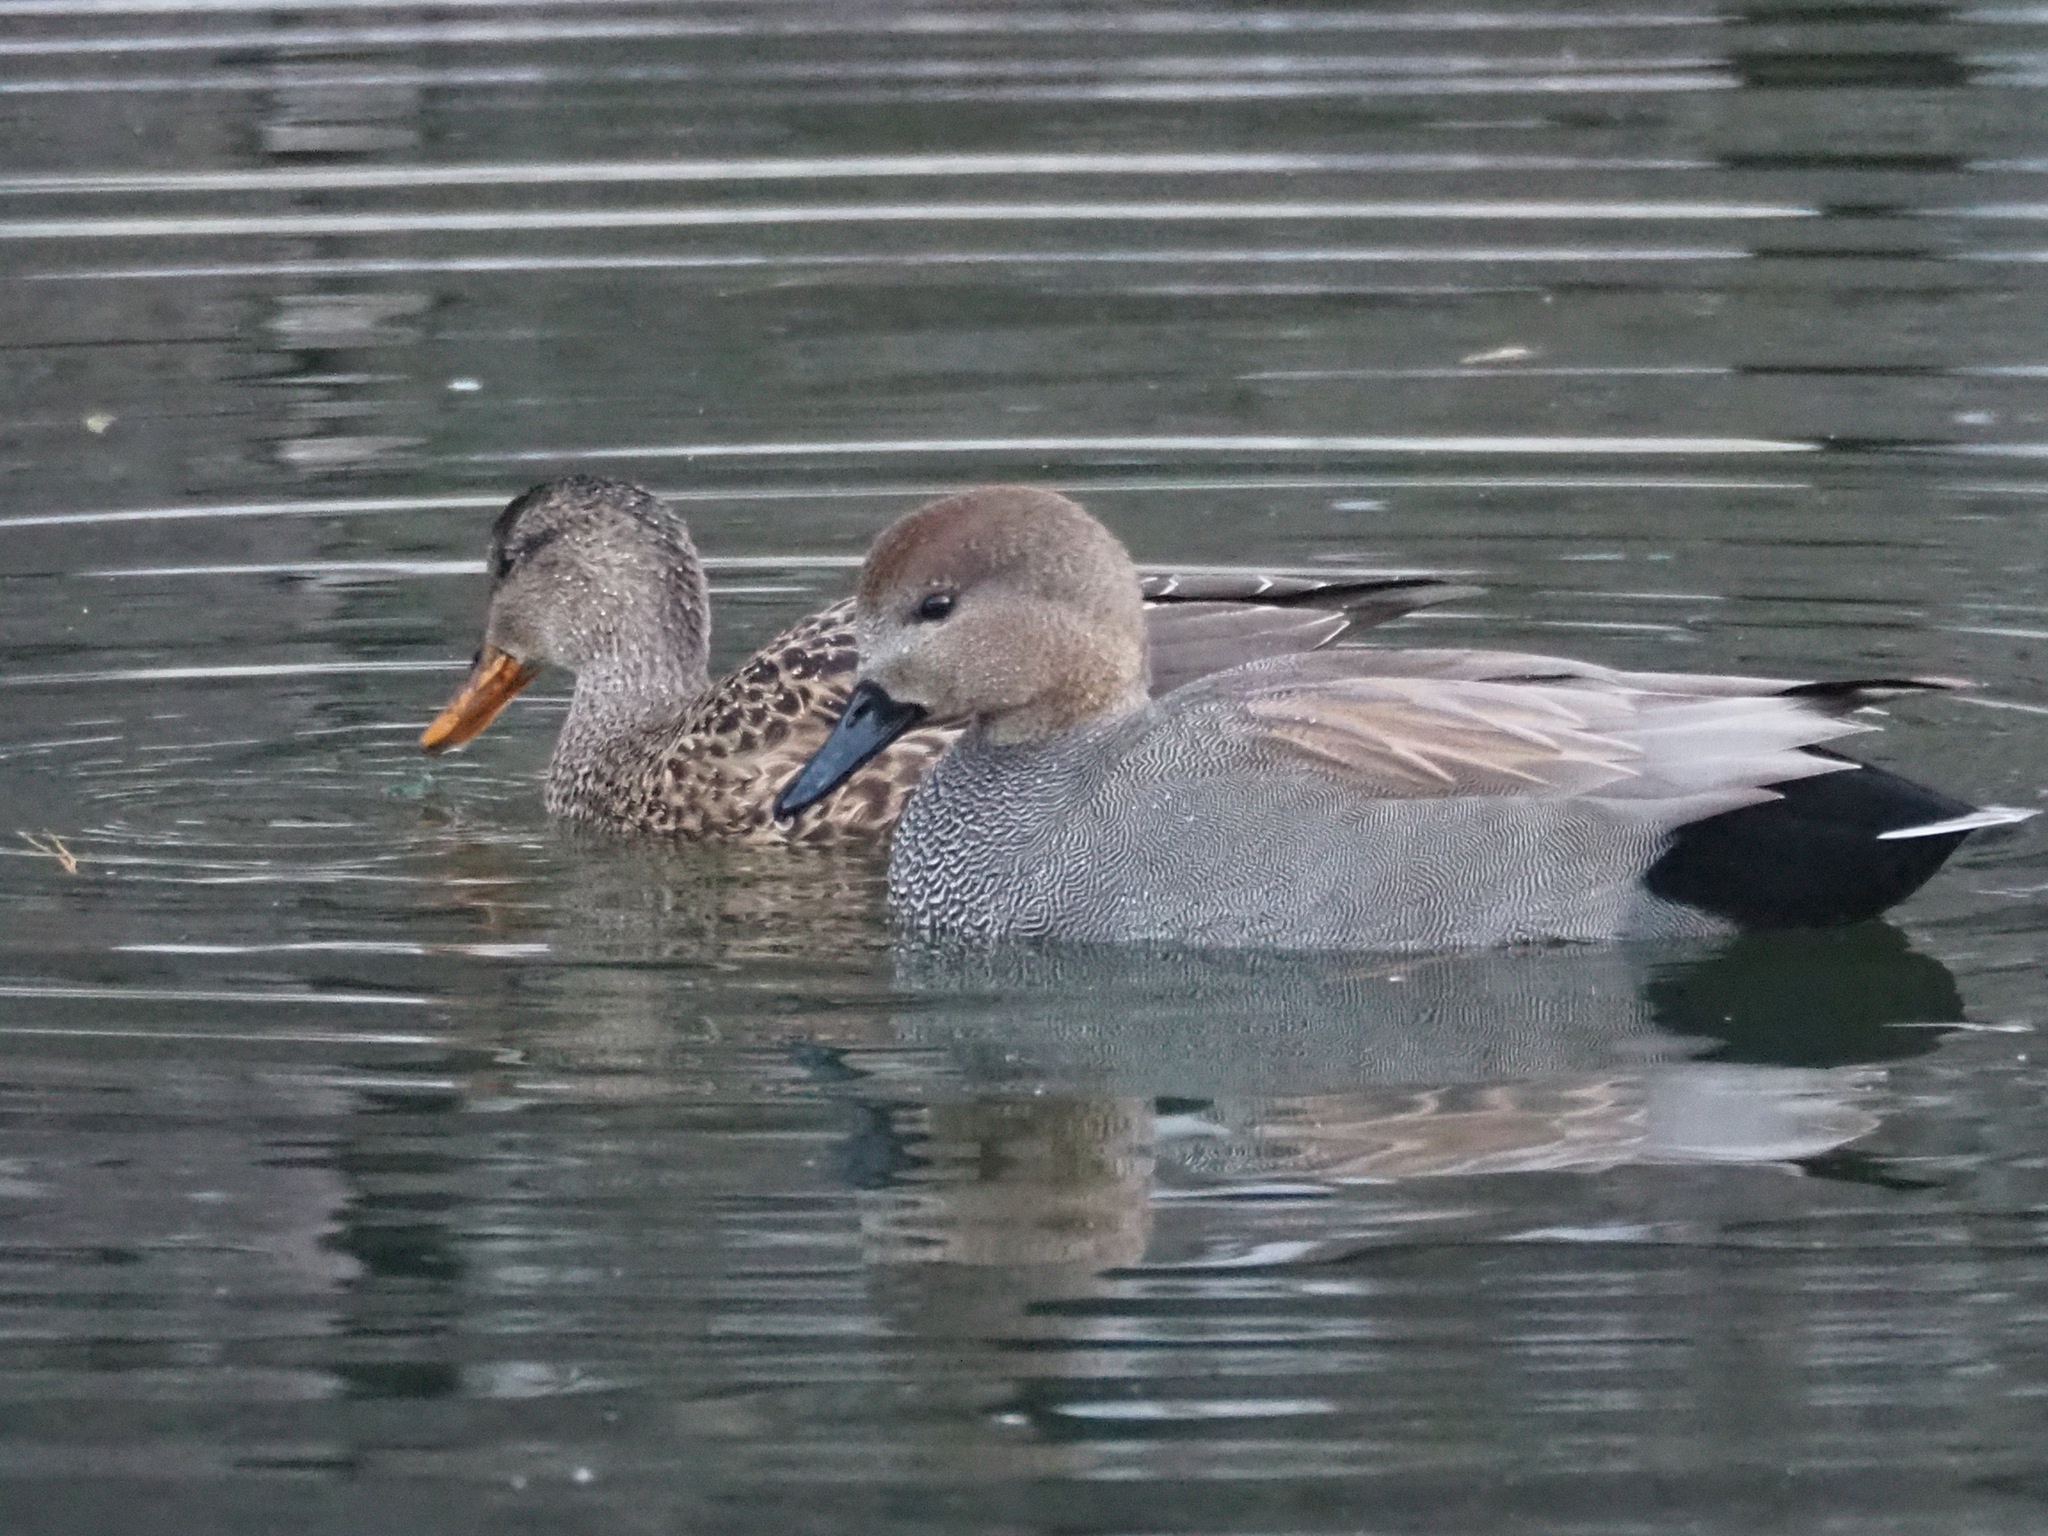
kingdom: Animalia
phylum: Chordata
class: Aves
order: Anseriformes
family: Anatidae
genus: Mareca
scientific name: Mareca strepera
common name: Gadwall
